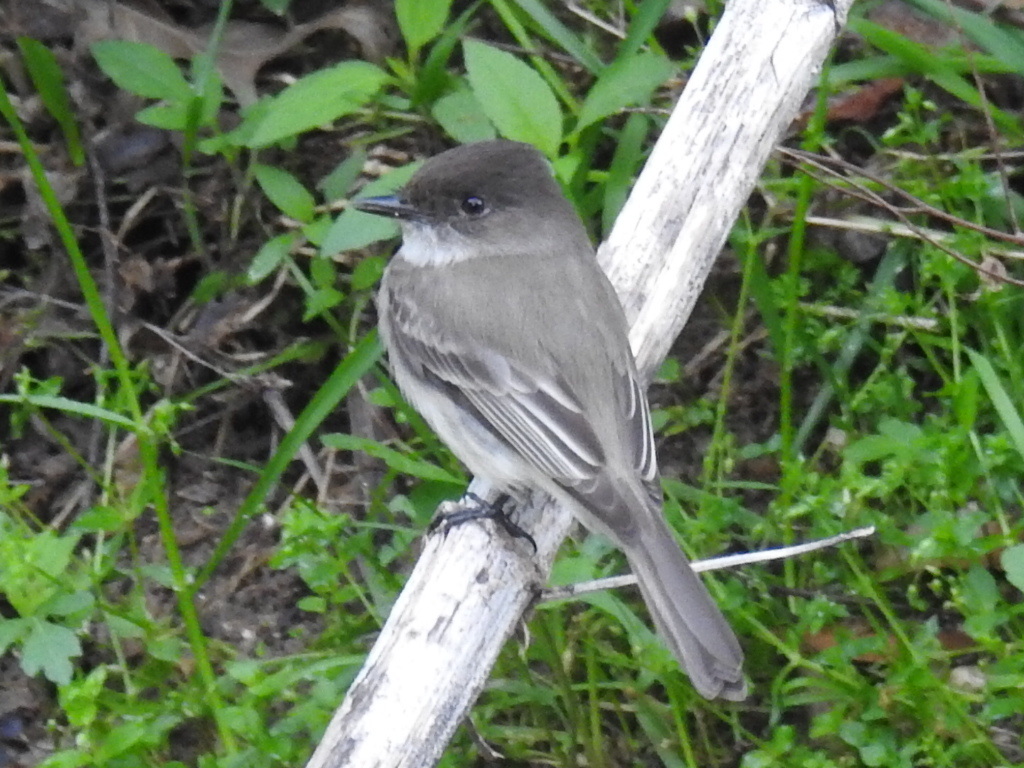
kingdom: Animalia
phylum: Chordata
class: Aves
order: Passeriformes
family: Tyrannidae
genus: Sayornis
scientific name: Sayornis phoebe
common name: Eastern phoebe
